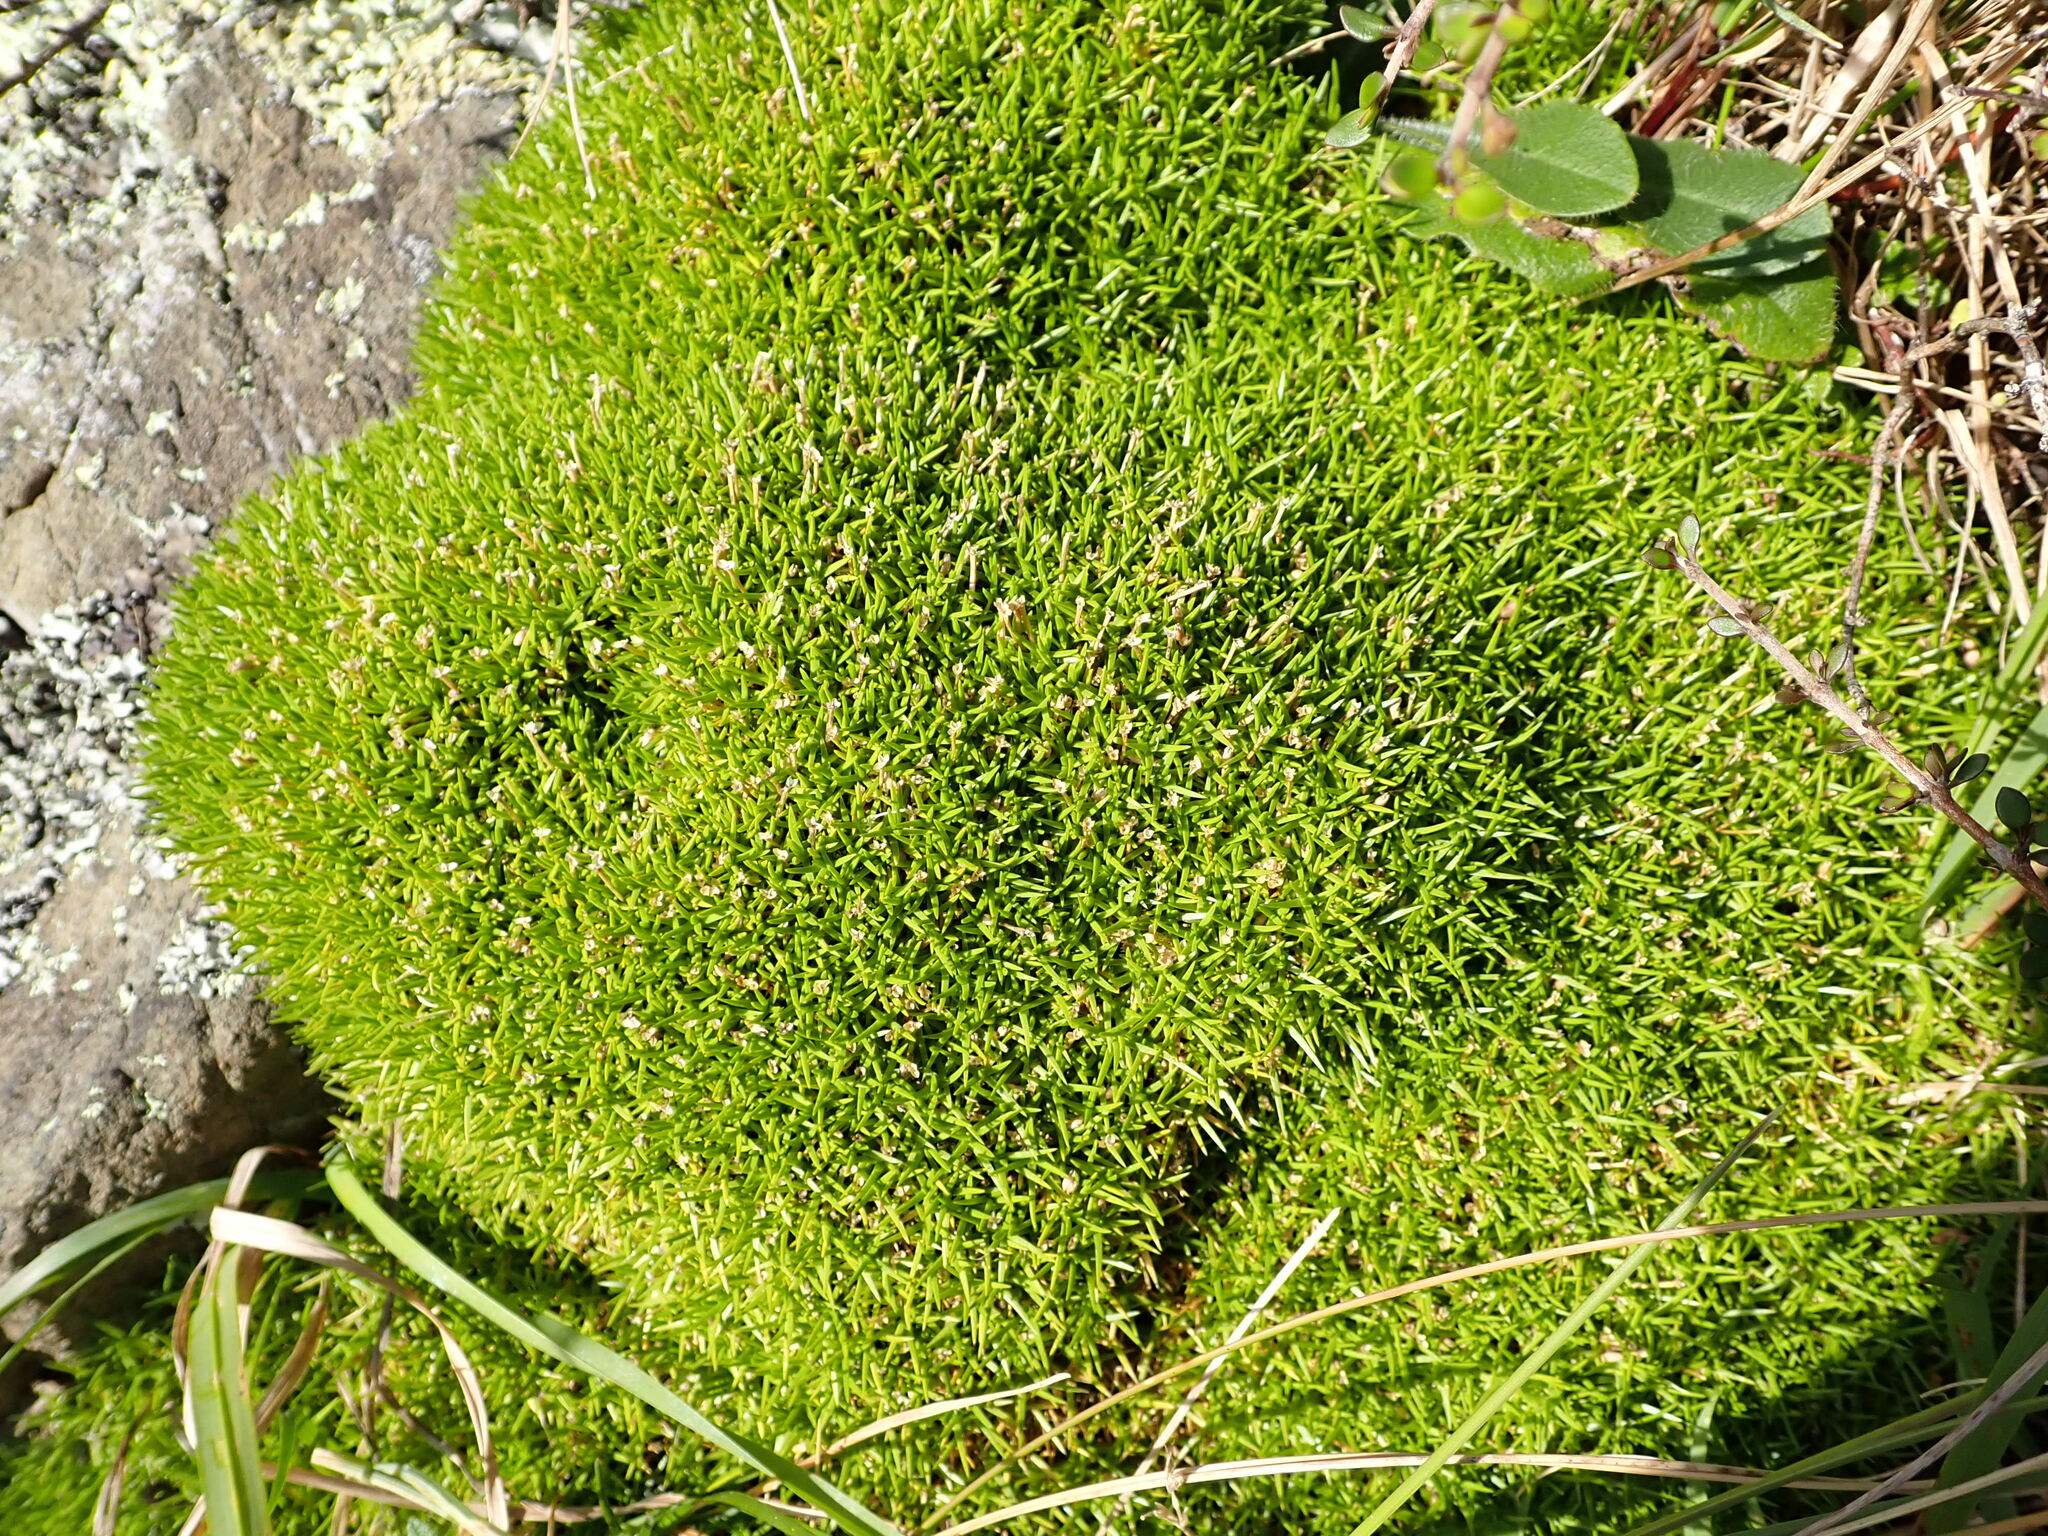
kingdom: Plantae
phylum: Tracheophyta
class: Magnoliopsida
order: Caryophyllales
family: Caryophyllaceae
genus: Scleranthus
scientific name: Scleranthus biflorus
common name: Two-flower knawel
